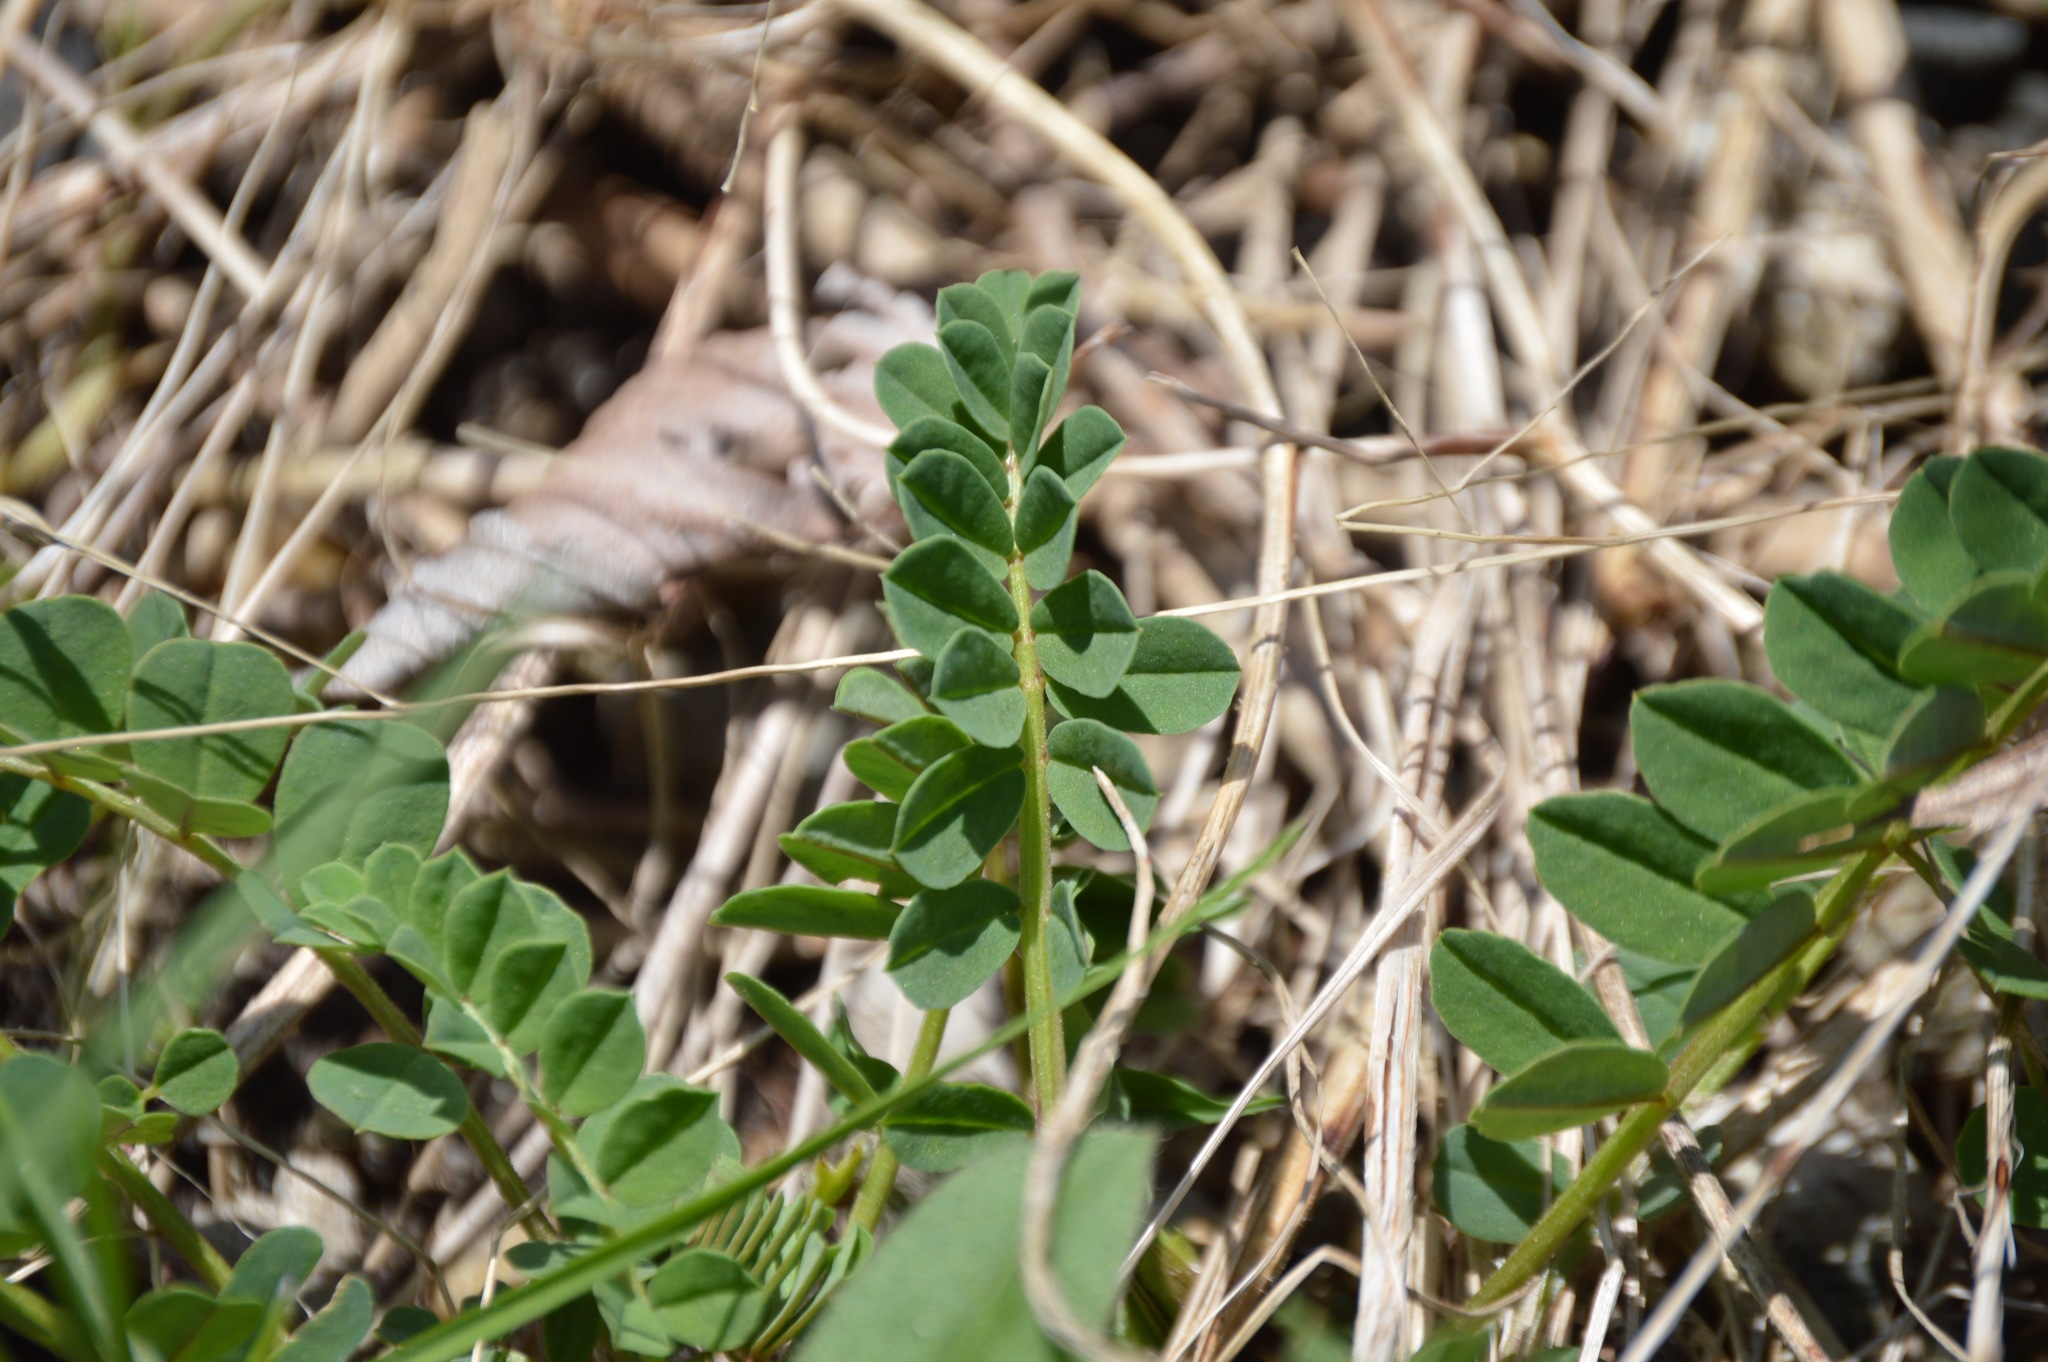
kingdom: Plantae
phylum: Tracheophyta
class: Magnoliopsida
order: Fabales
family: Fabaceae
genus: Coronilla
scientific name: Coronilla varia
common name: Crownvetch
